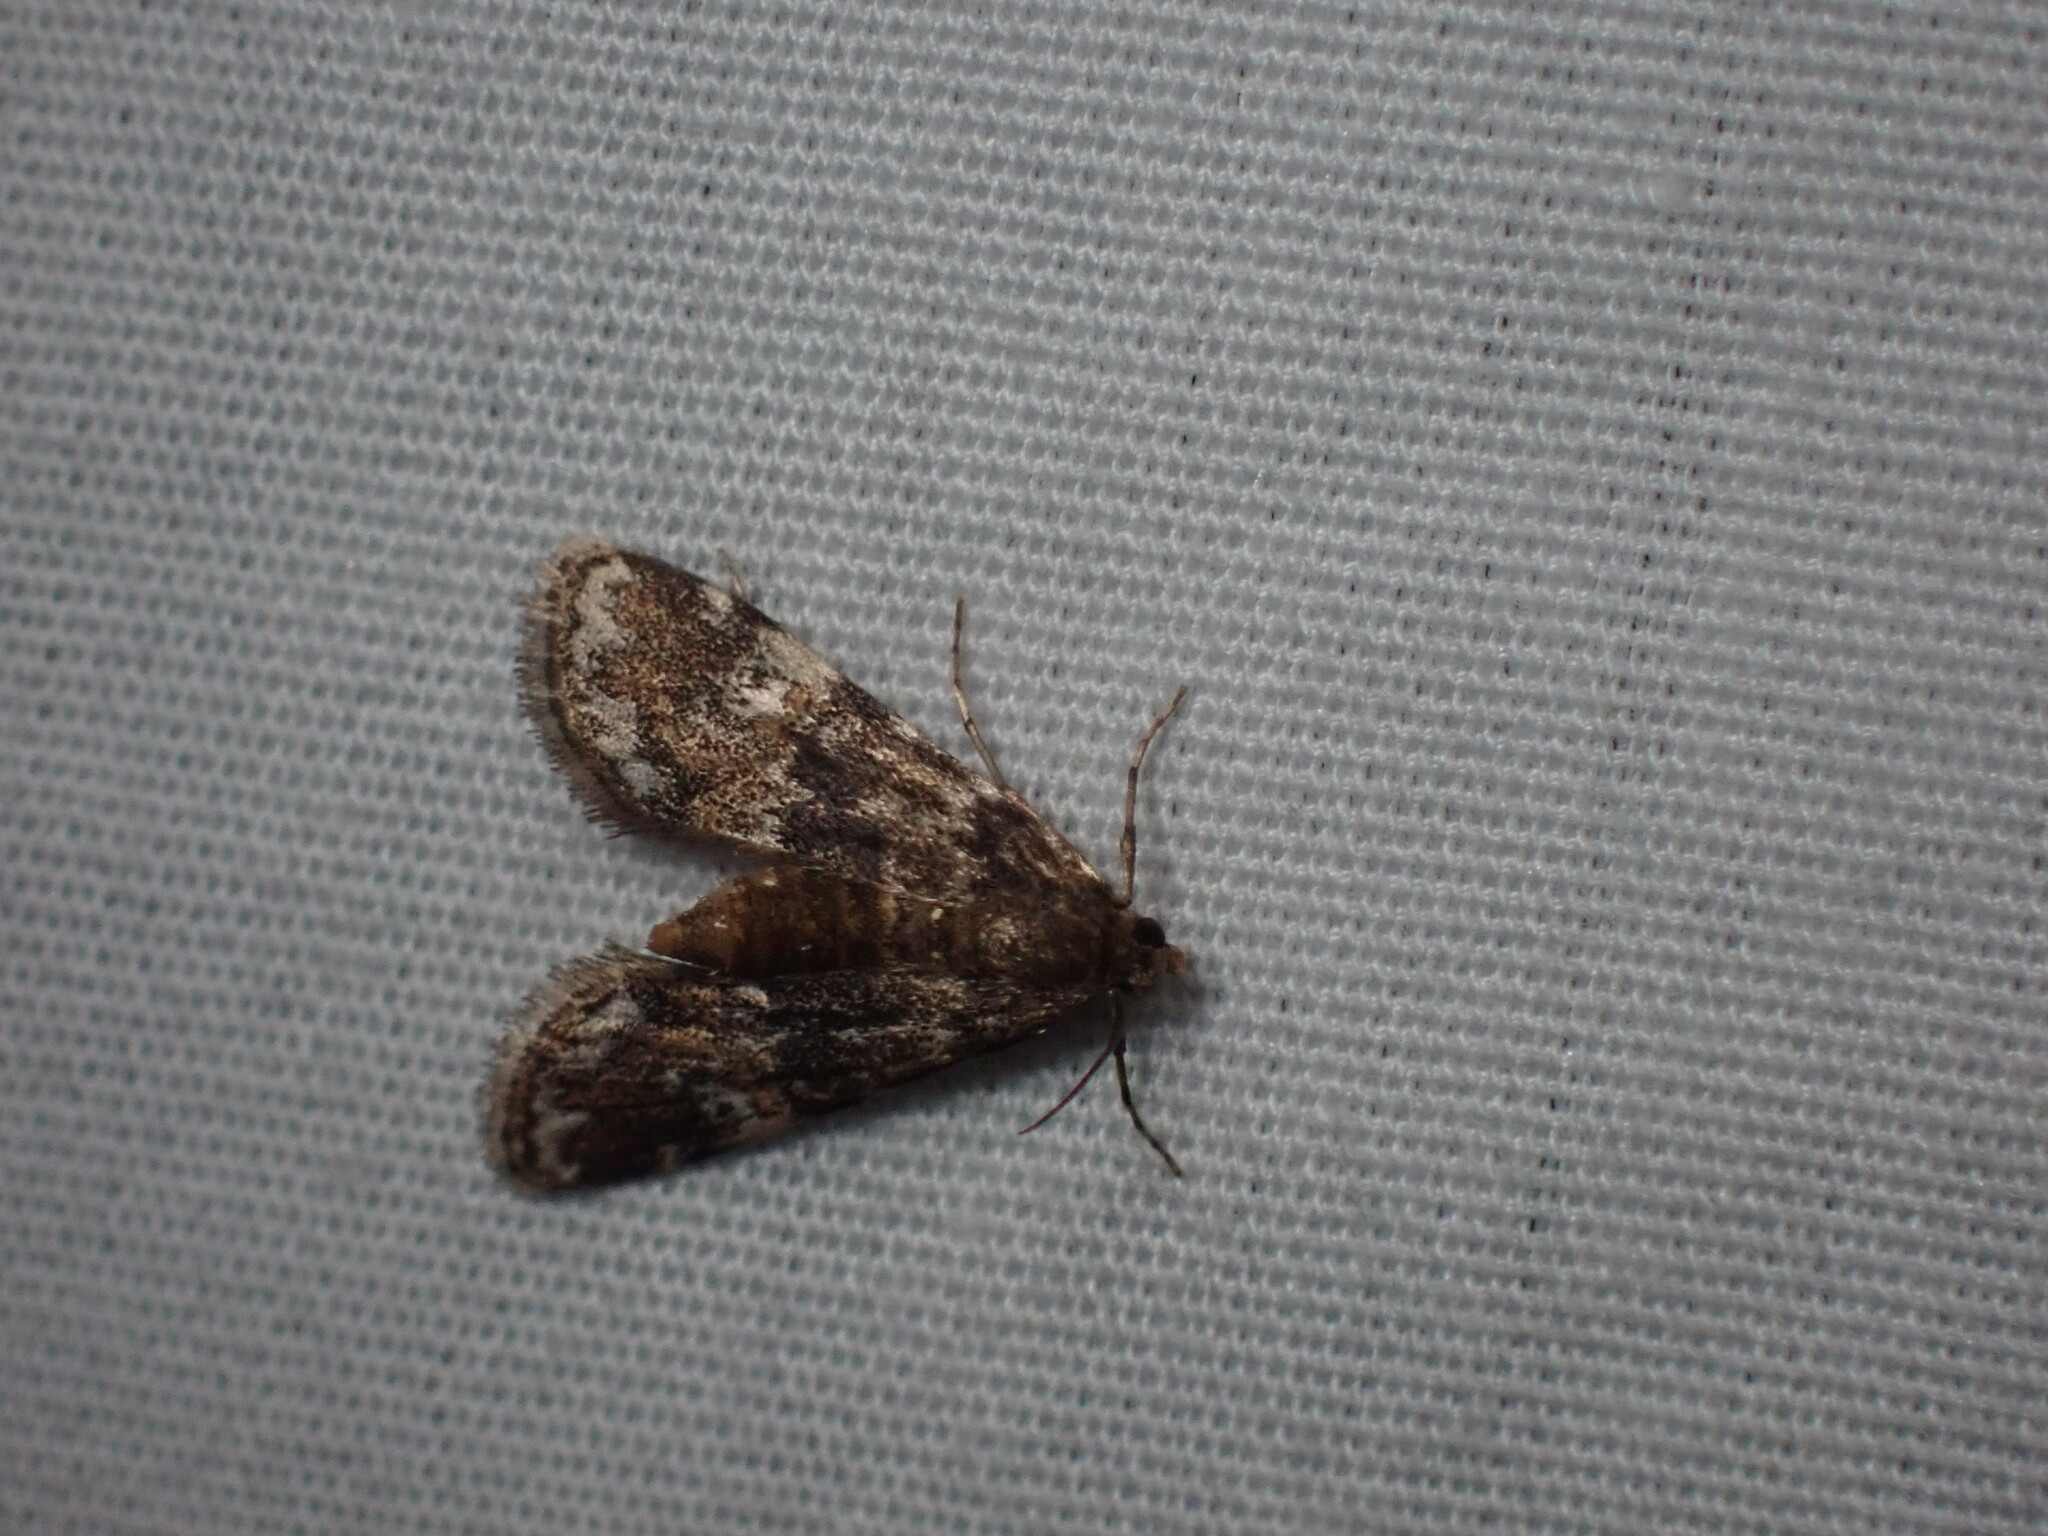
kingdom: Animalia
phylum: Arthropoda
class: Insecta
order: Lepidoptera
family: Crambidae
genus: Elophila
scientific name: Elophila obliteralis
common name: Waterlily leafcutter moth
